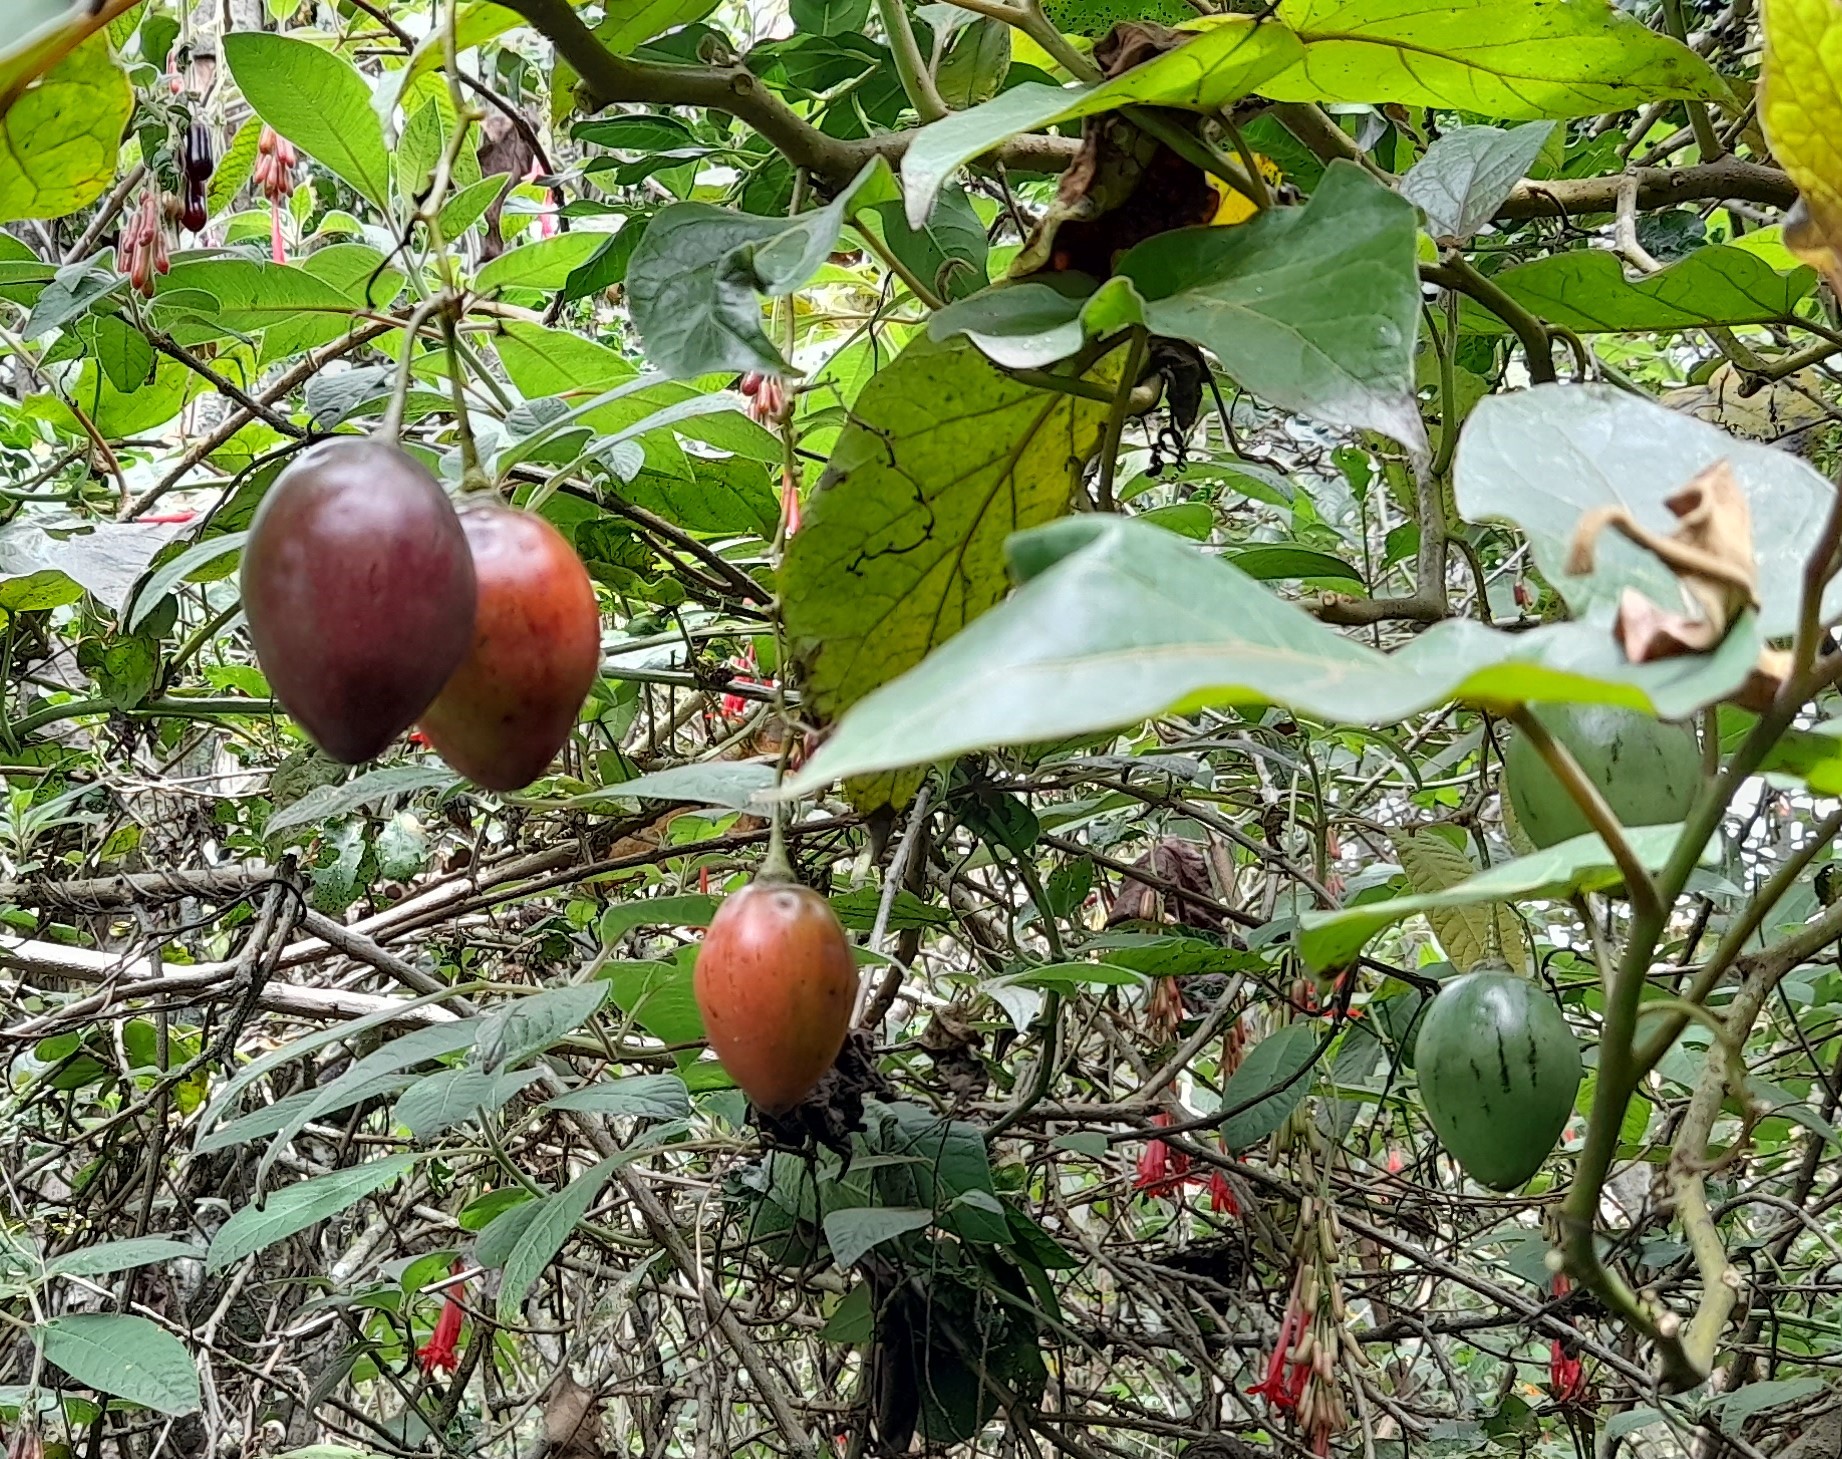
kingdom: Plantae
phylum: Tracheophyta
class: Magnoliopsida
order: Solanales
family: Solanaceae
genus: Solanum
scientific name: Solanum betaceum
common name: Tamarillo
